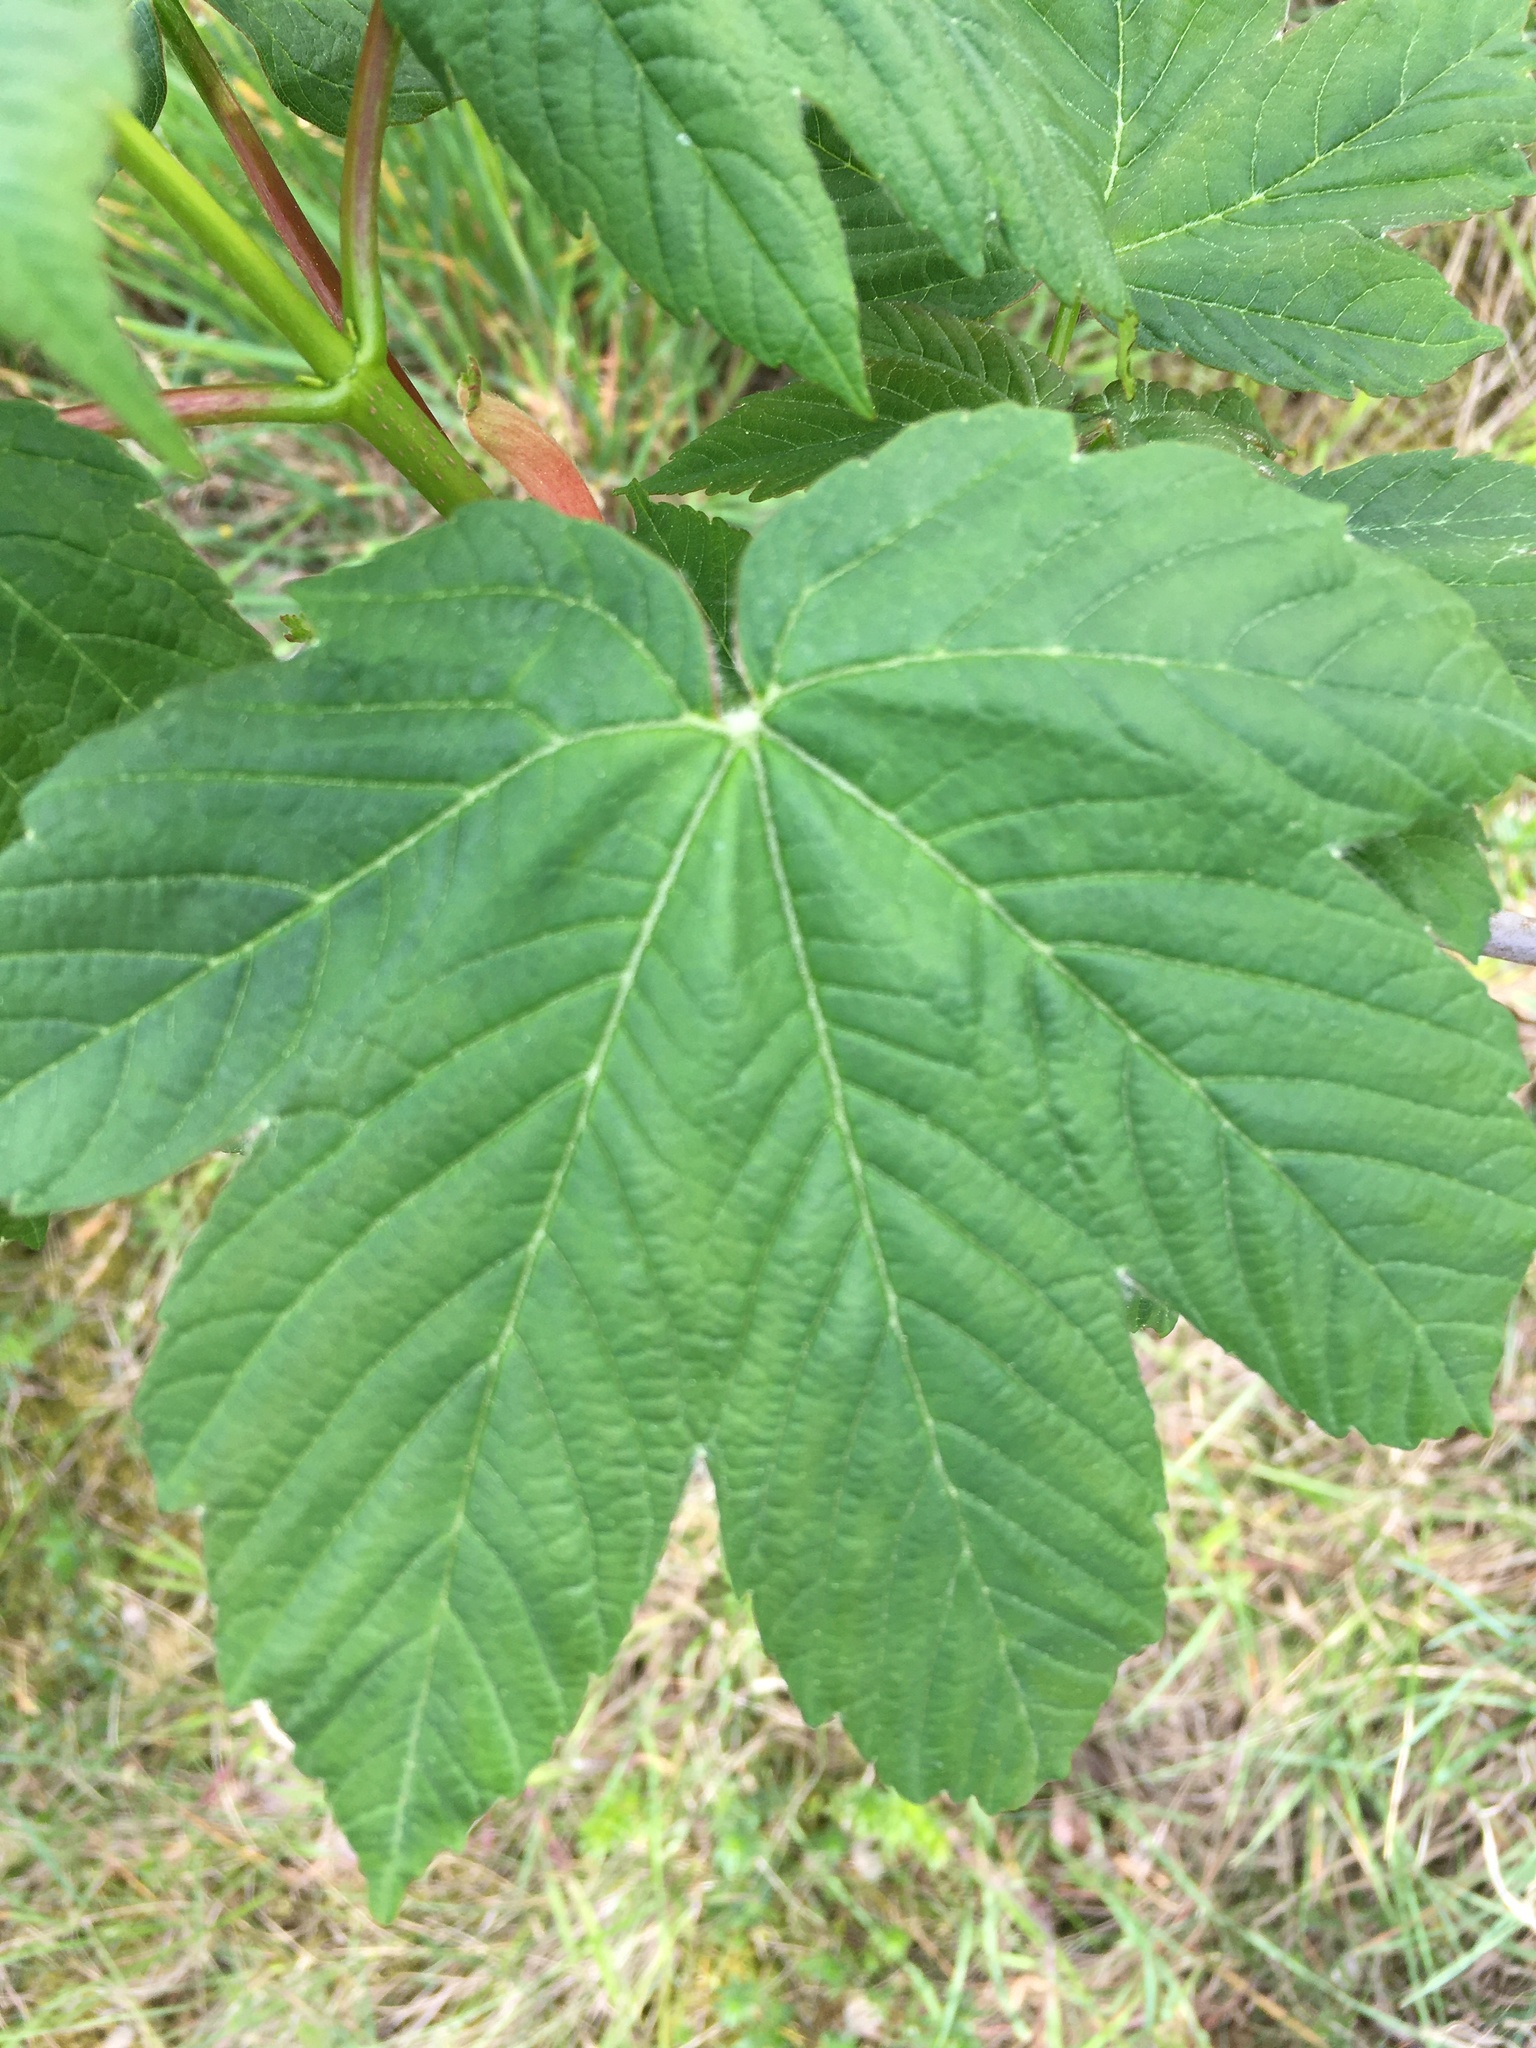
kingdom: Plantae
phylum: Tracheophyta
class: Magnoliopsida
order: Sapindales
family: Sapindaceae
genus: Acer
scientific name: Acer pseudoplatanus
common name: Sycamore
